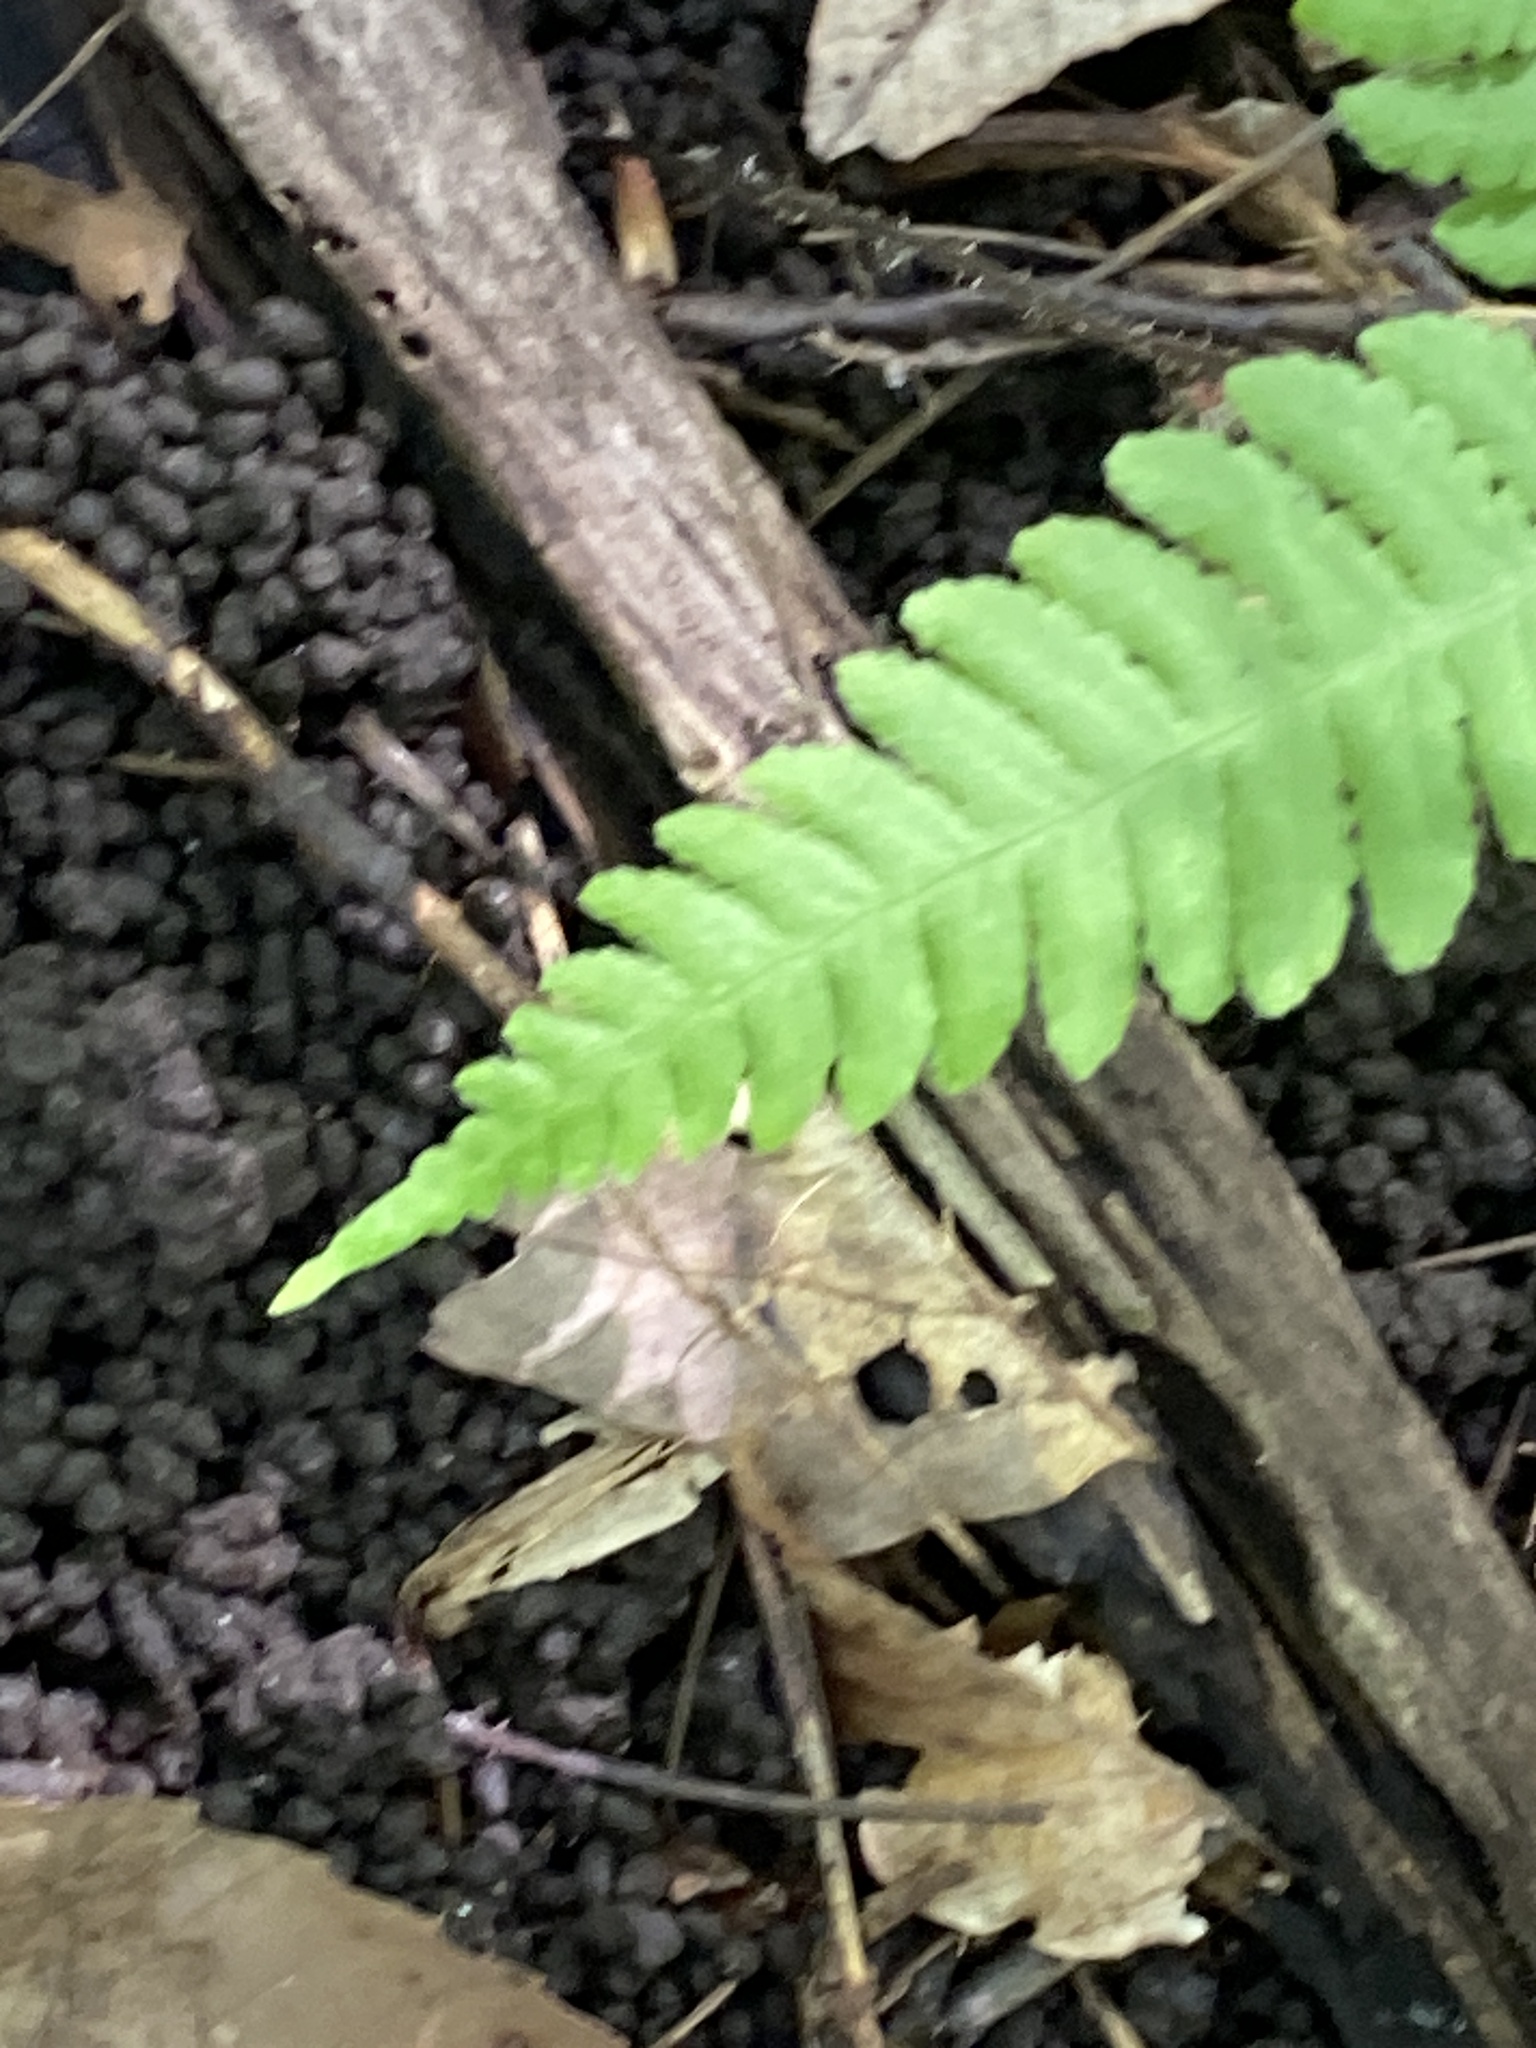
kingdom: Plantae
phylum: Tracheophyta
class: Polypodiopsida
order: Polypodiales
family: Thelypteridaceae
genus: Phegopteris
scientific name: Phegopteris hexagonoptera
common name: Broad beech fern
